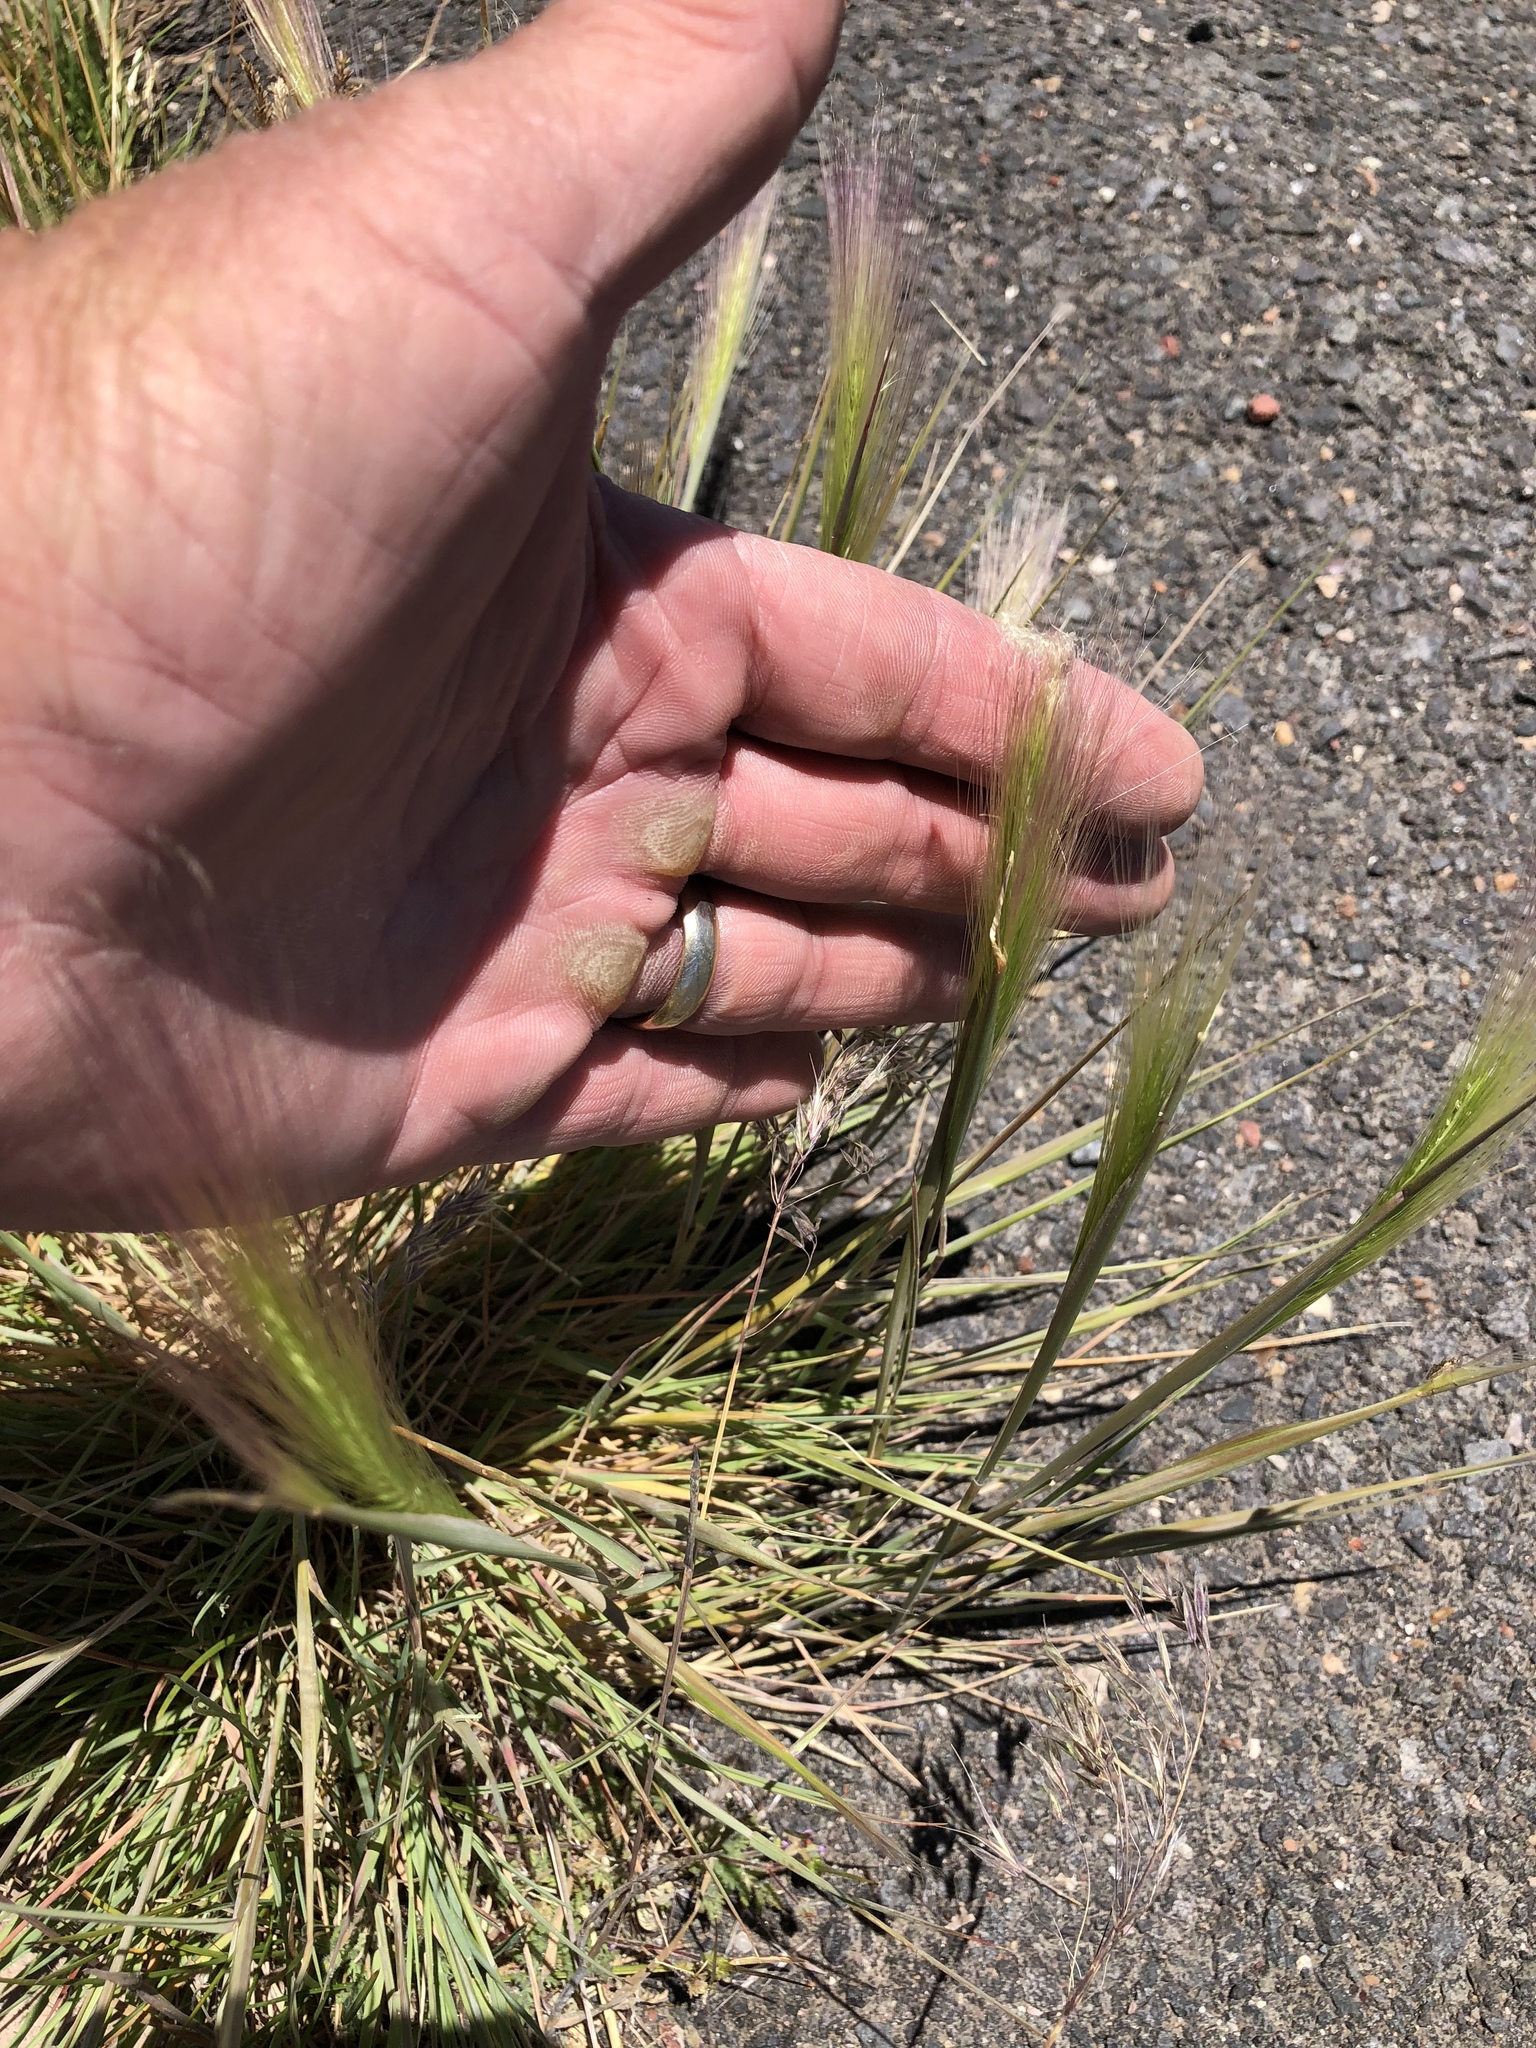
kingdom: Plantae
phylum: Tracheophyta
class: Liliopsida
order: Poales
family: Poaceae
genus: Elymus
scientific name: Elymus elymoides
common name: Bottlebrush squirreltail
